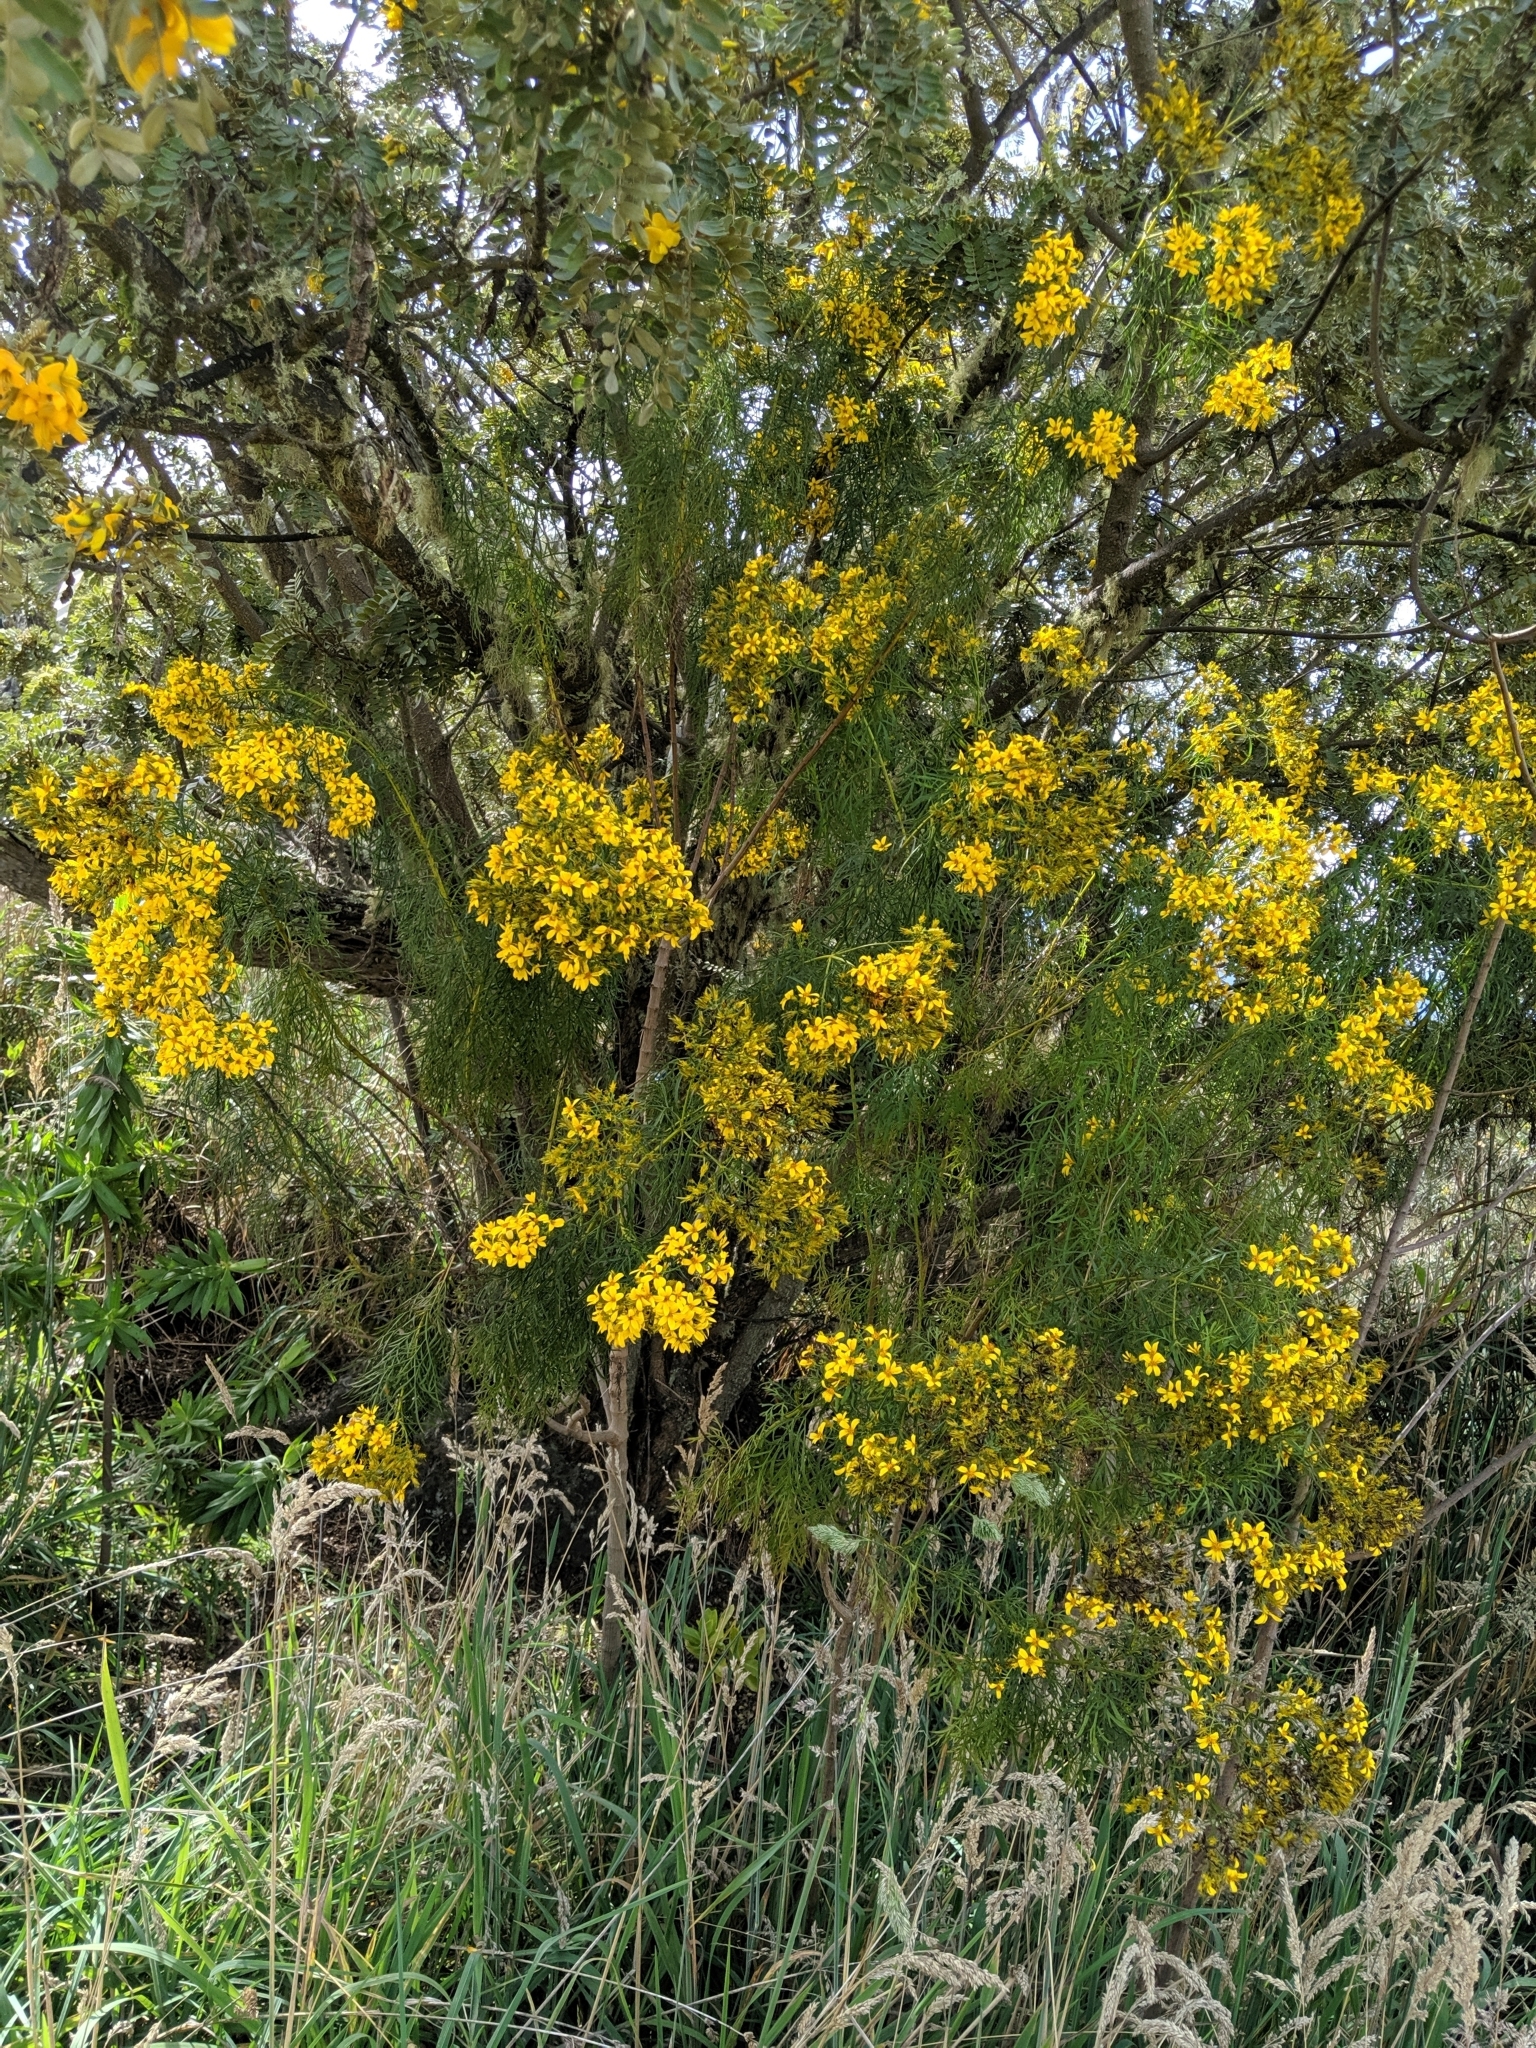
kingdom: Plantae
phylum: Tracheophyta
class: Magnoliopsida
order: Asterales
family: Asteraceae
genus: Bidens
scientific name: Bidens menziesii
